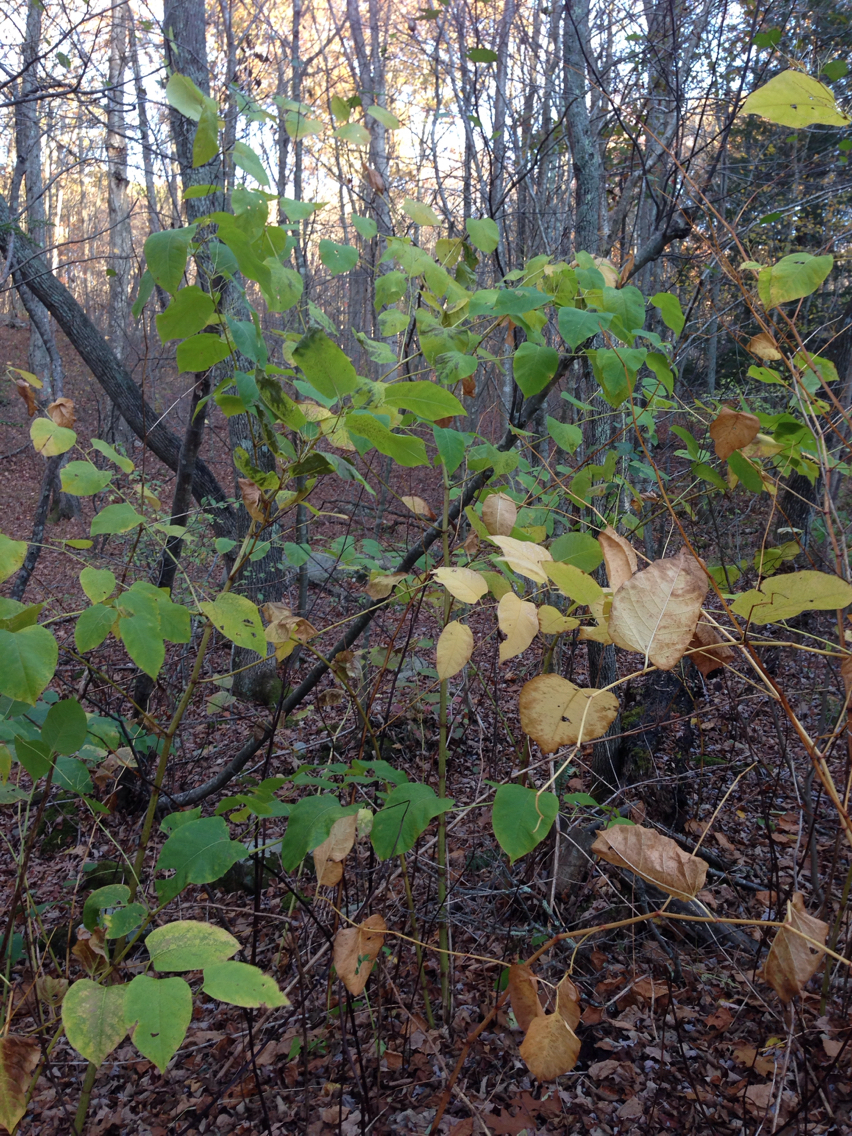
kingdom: Plantae
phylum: Tracheophyta
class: Magnoliopsida
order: Caryophyllales
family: Polygonaceae
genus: Reynoutria
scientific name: Reynoutria japonica
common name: Japanese knotweed
